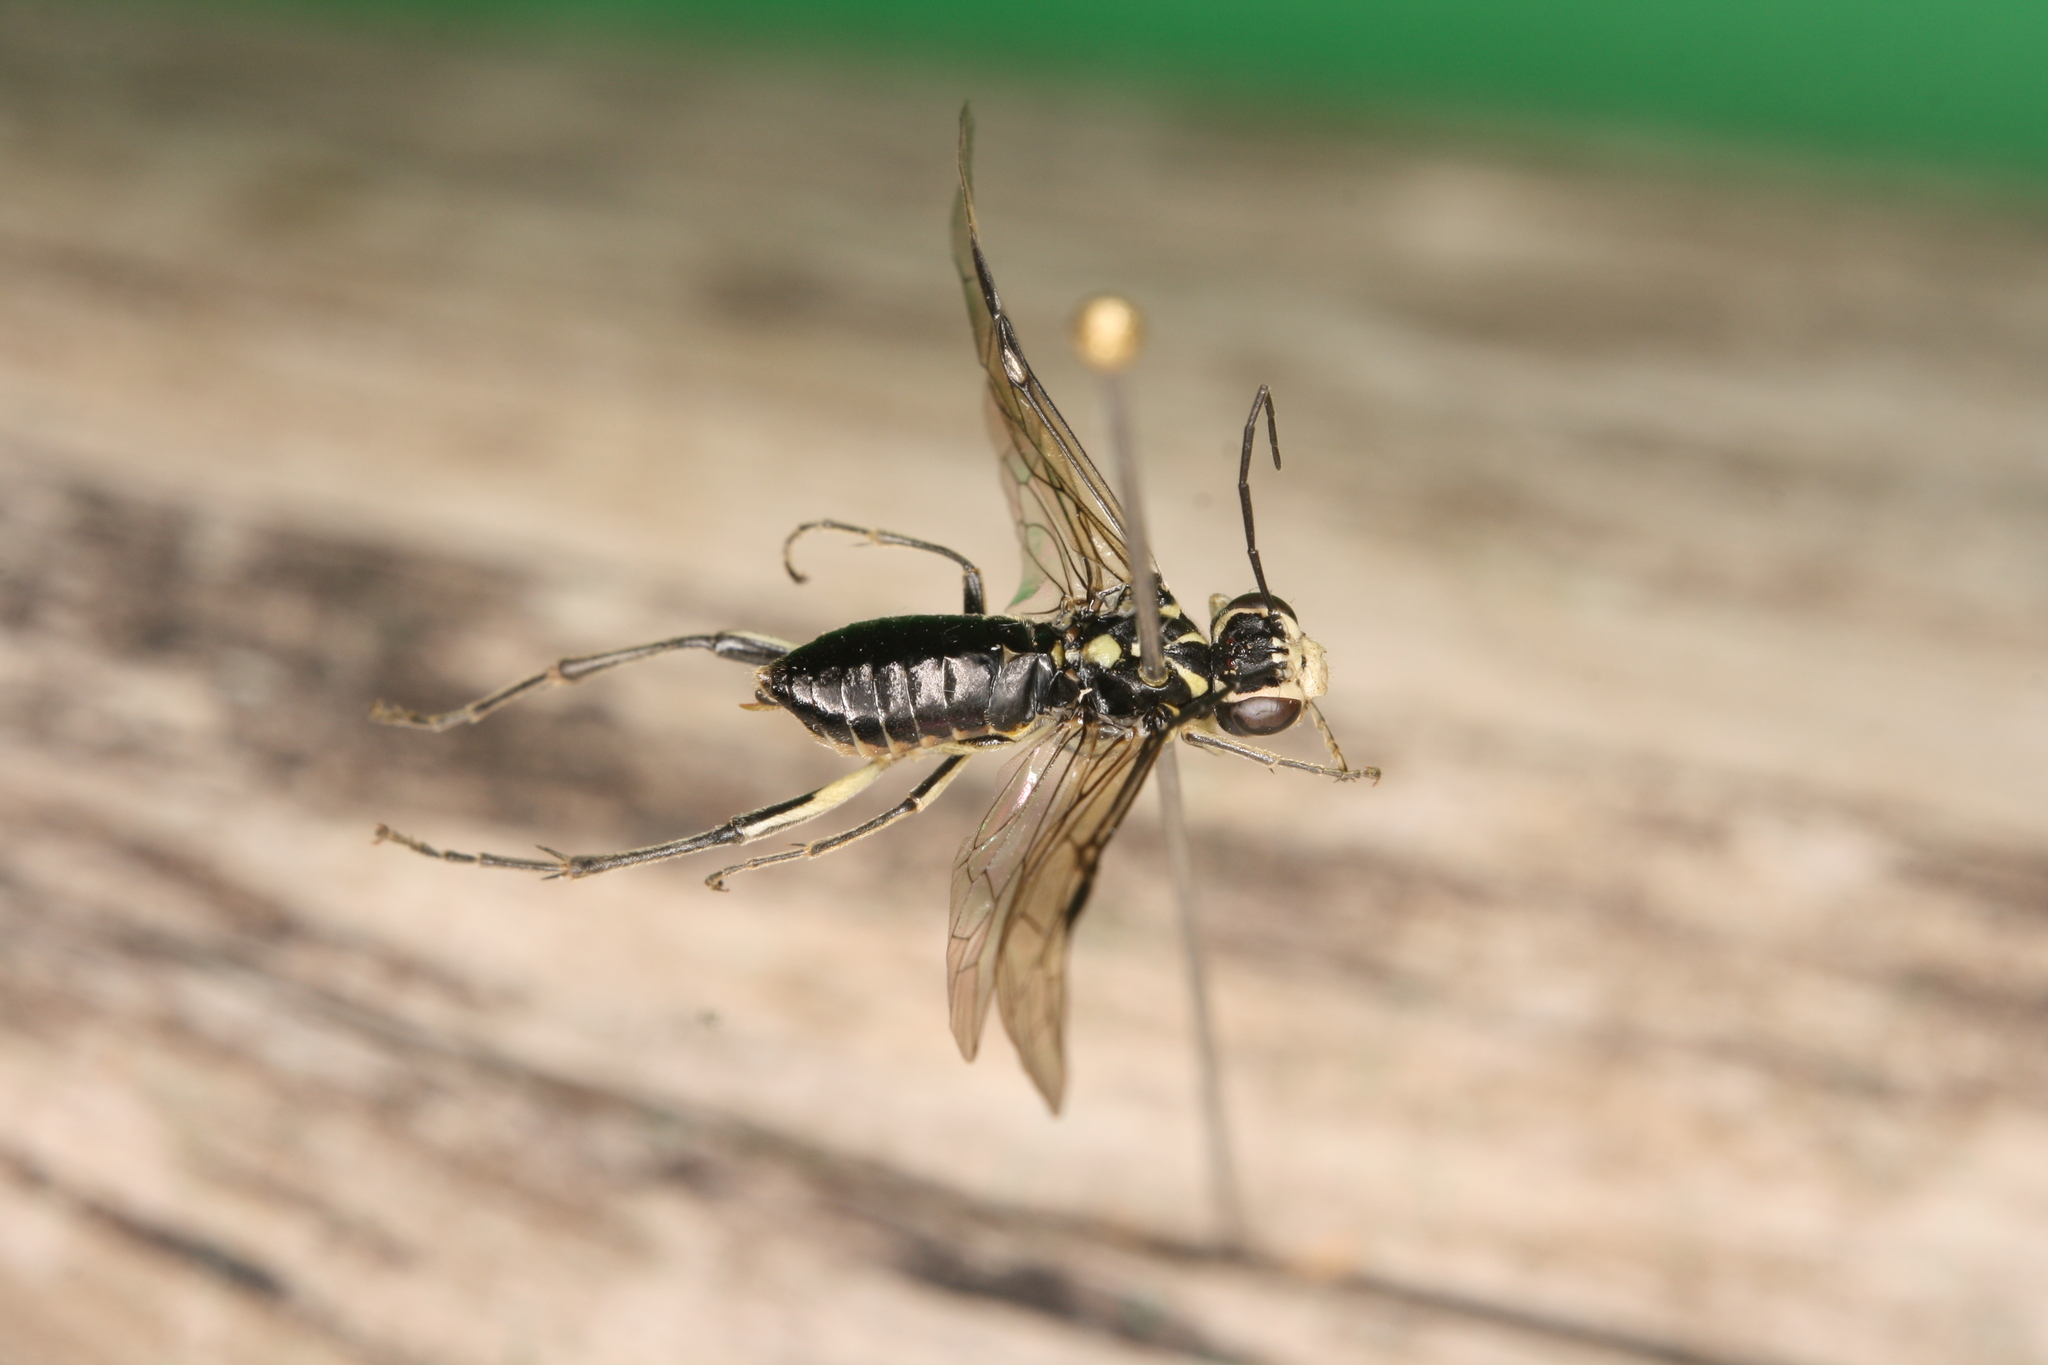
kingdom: Animalia
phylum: Arthropoda
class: Insecta
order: Hymenoptera
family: Tenthredinidae
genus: Pachyprotasis
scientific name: Pachyprotasis rapae
